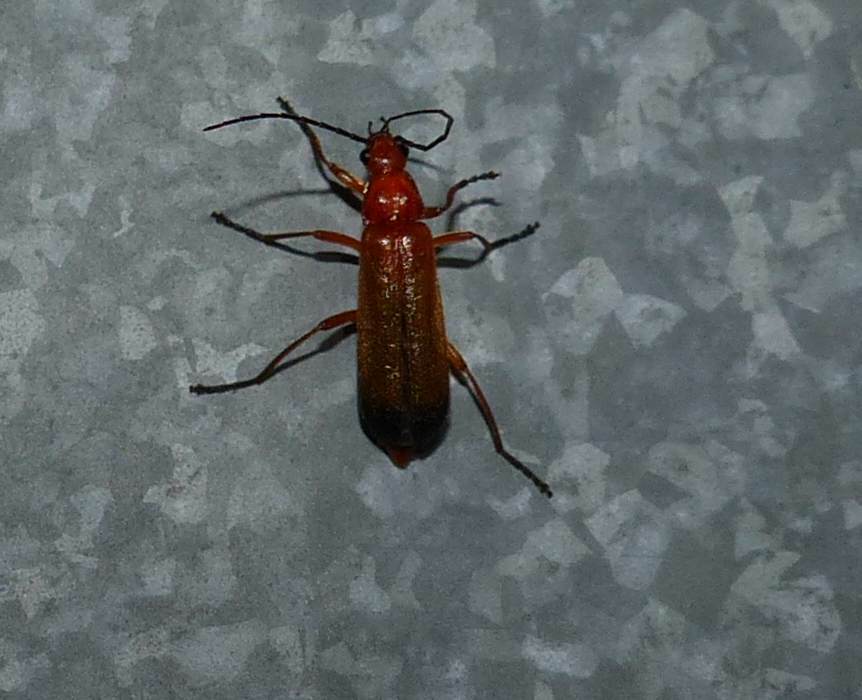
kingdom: Animalia
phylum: Arthropoda
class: Insecta
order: Coleoptera
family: Cantharidae
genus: Rhagonycha
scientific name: Rhagonycha fulva
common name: Common red soldier beetle
